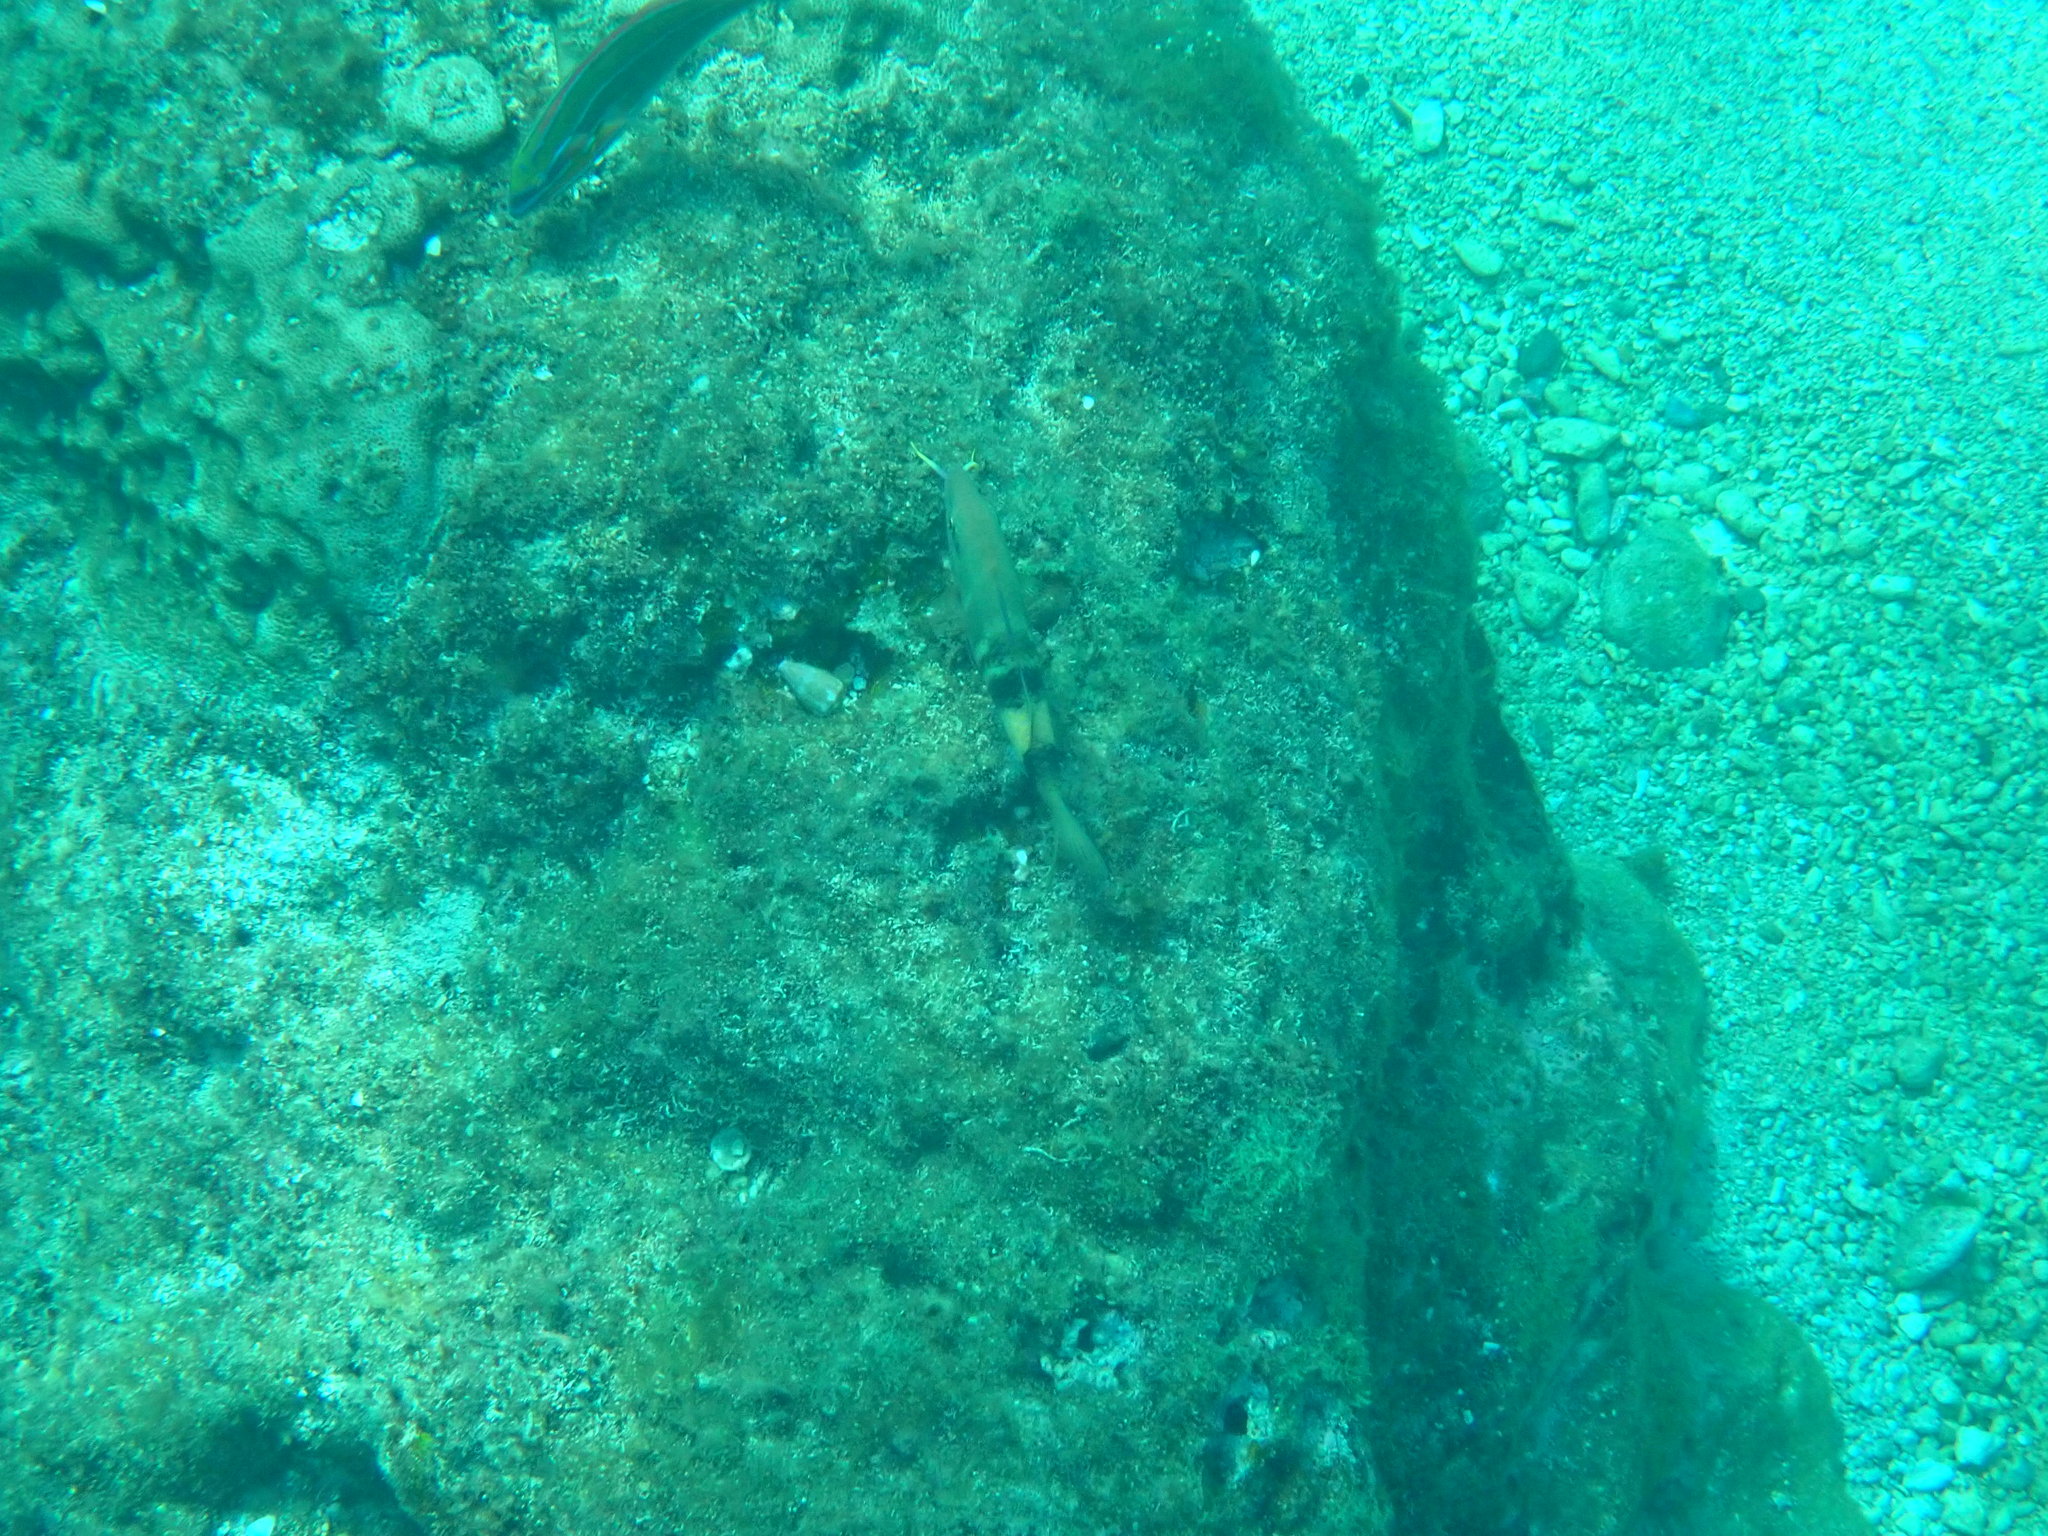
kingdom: Animalia
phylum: Chordata
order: Perciformes
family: Mullidae
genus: Parupeneus
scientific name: Parupeneus multifasciatus
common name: Manybar goatfish
